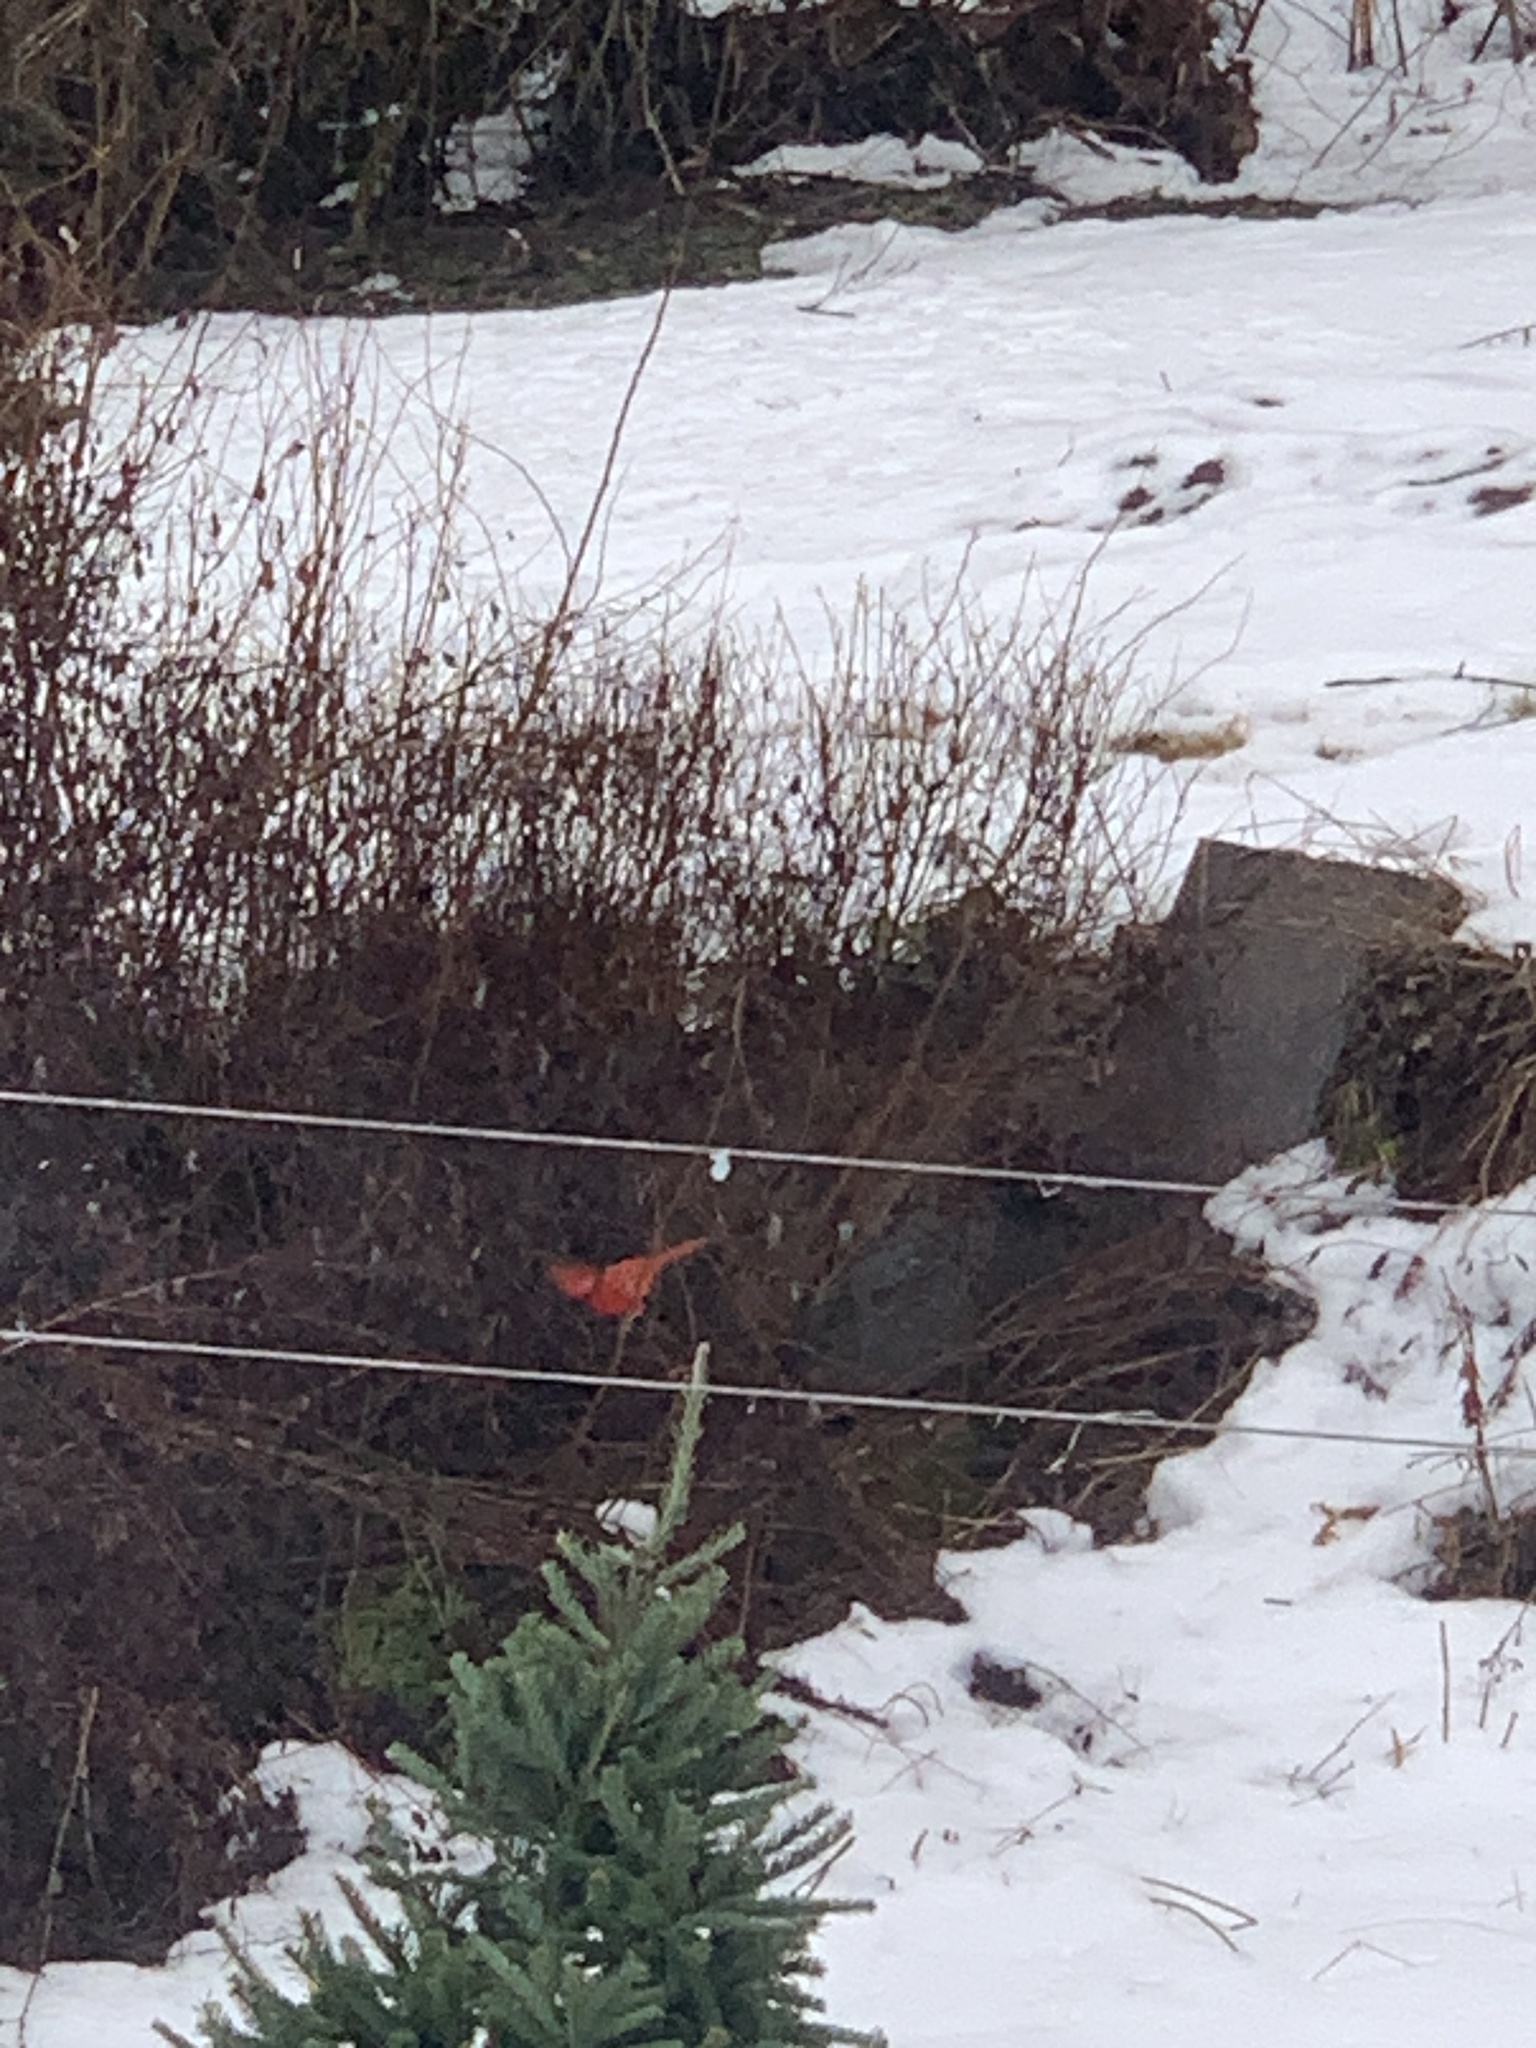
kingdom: Animalia
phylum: Chordata
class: Aves
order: Passeriformes
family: Cardinalidae
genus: Cardinalis
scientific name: Cardinalis cardinalis
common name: Northern cardinal
